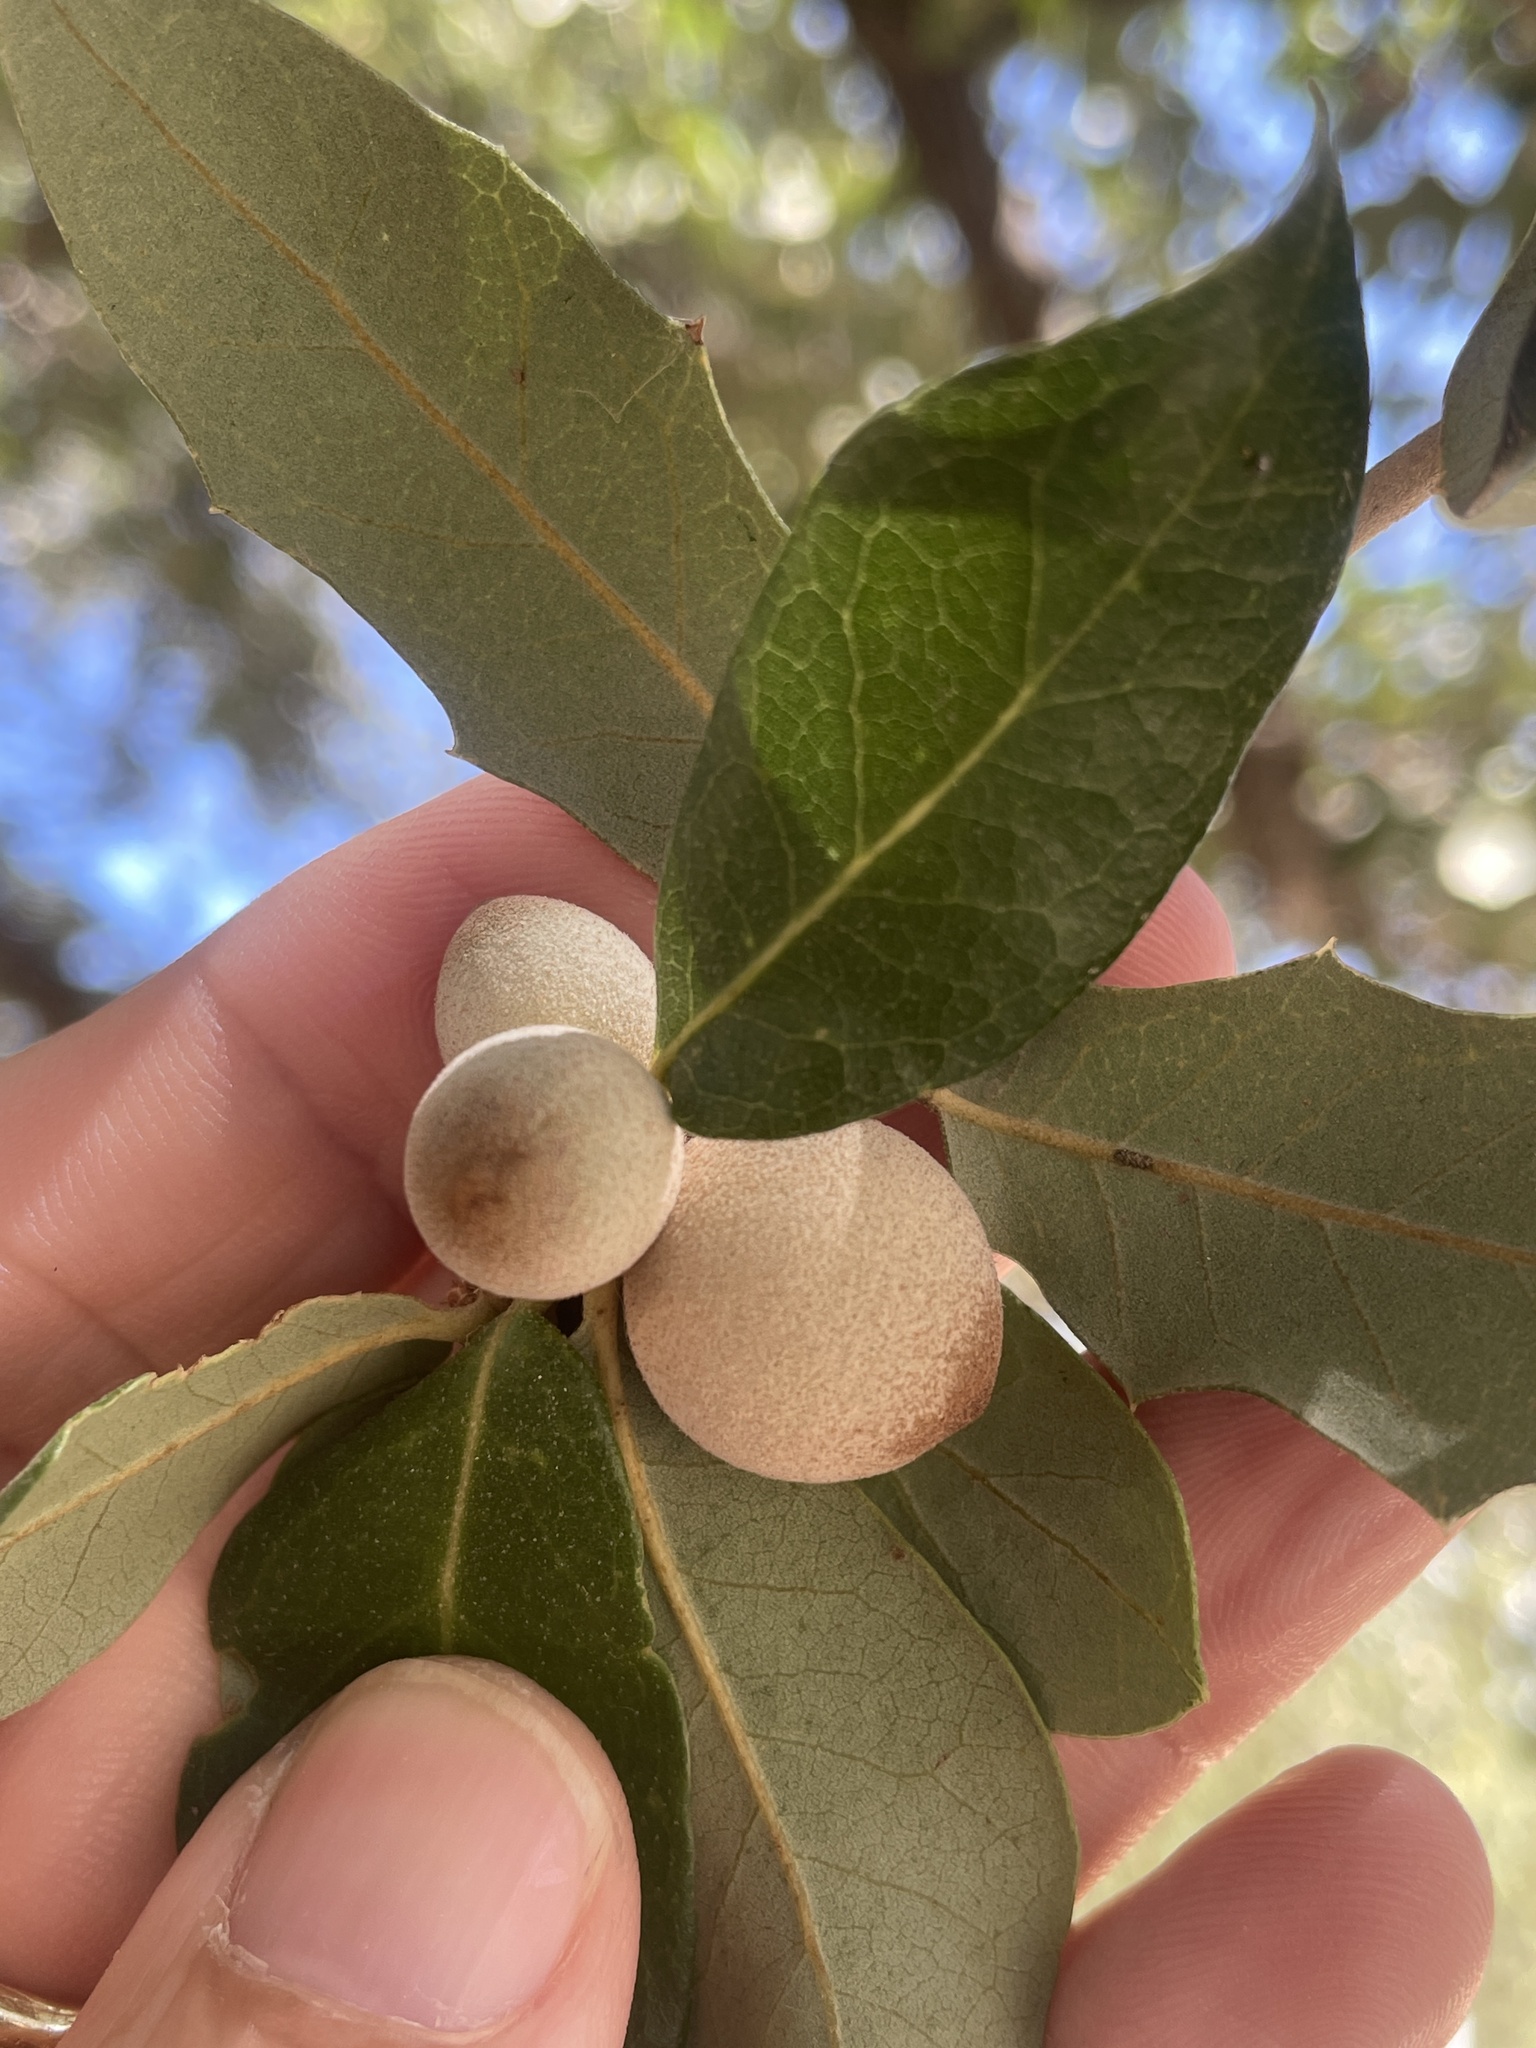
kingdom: Animalia
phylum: Arthropoda
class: Insecta
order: Hymenoptera
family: Cynipidae
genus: Disholcaspis
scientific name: Disholcaspis
